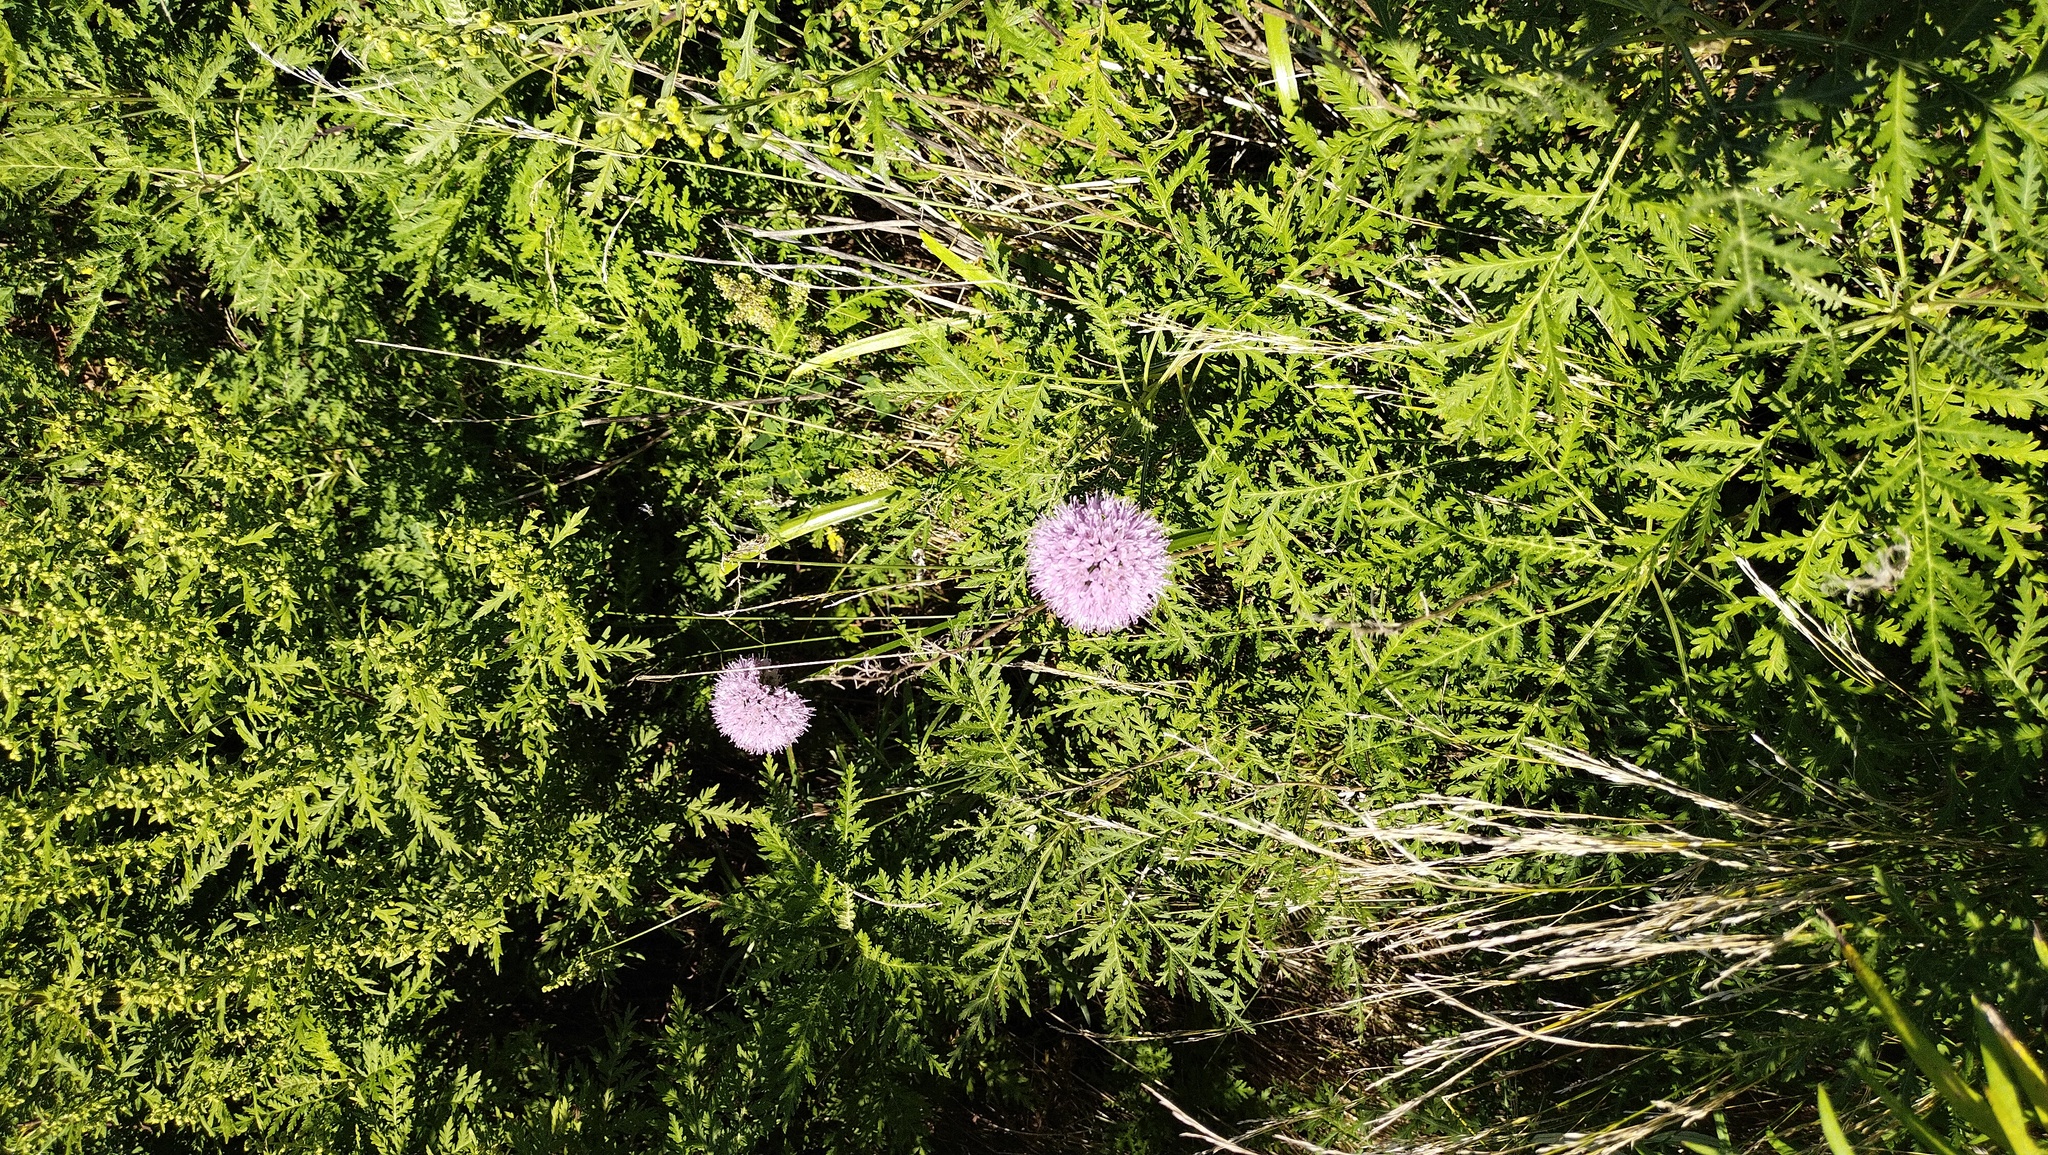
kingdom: Plantae
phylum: Tracheophyta
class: Liliopsida
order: Asparagales
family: Amaryllidaceae
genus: Allium
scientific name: Allium spirale
